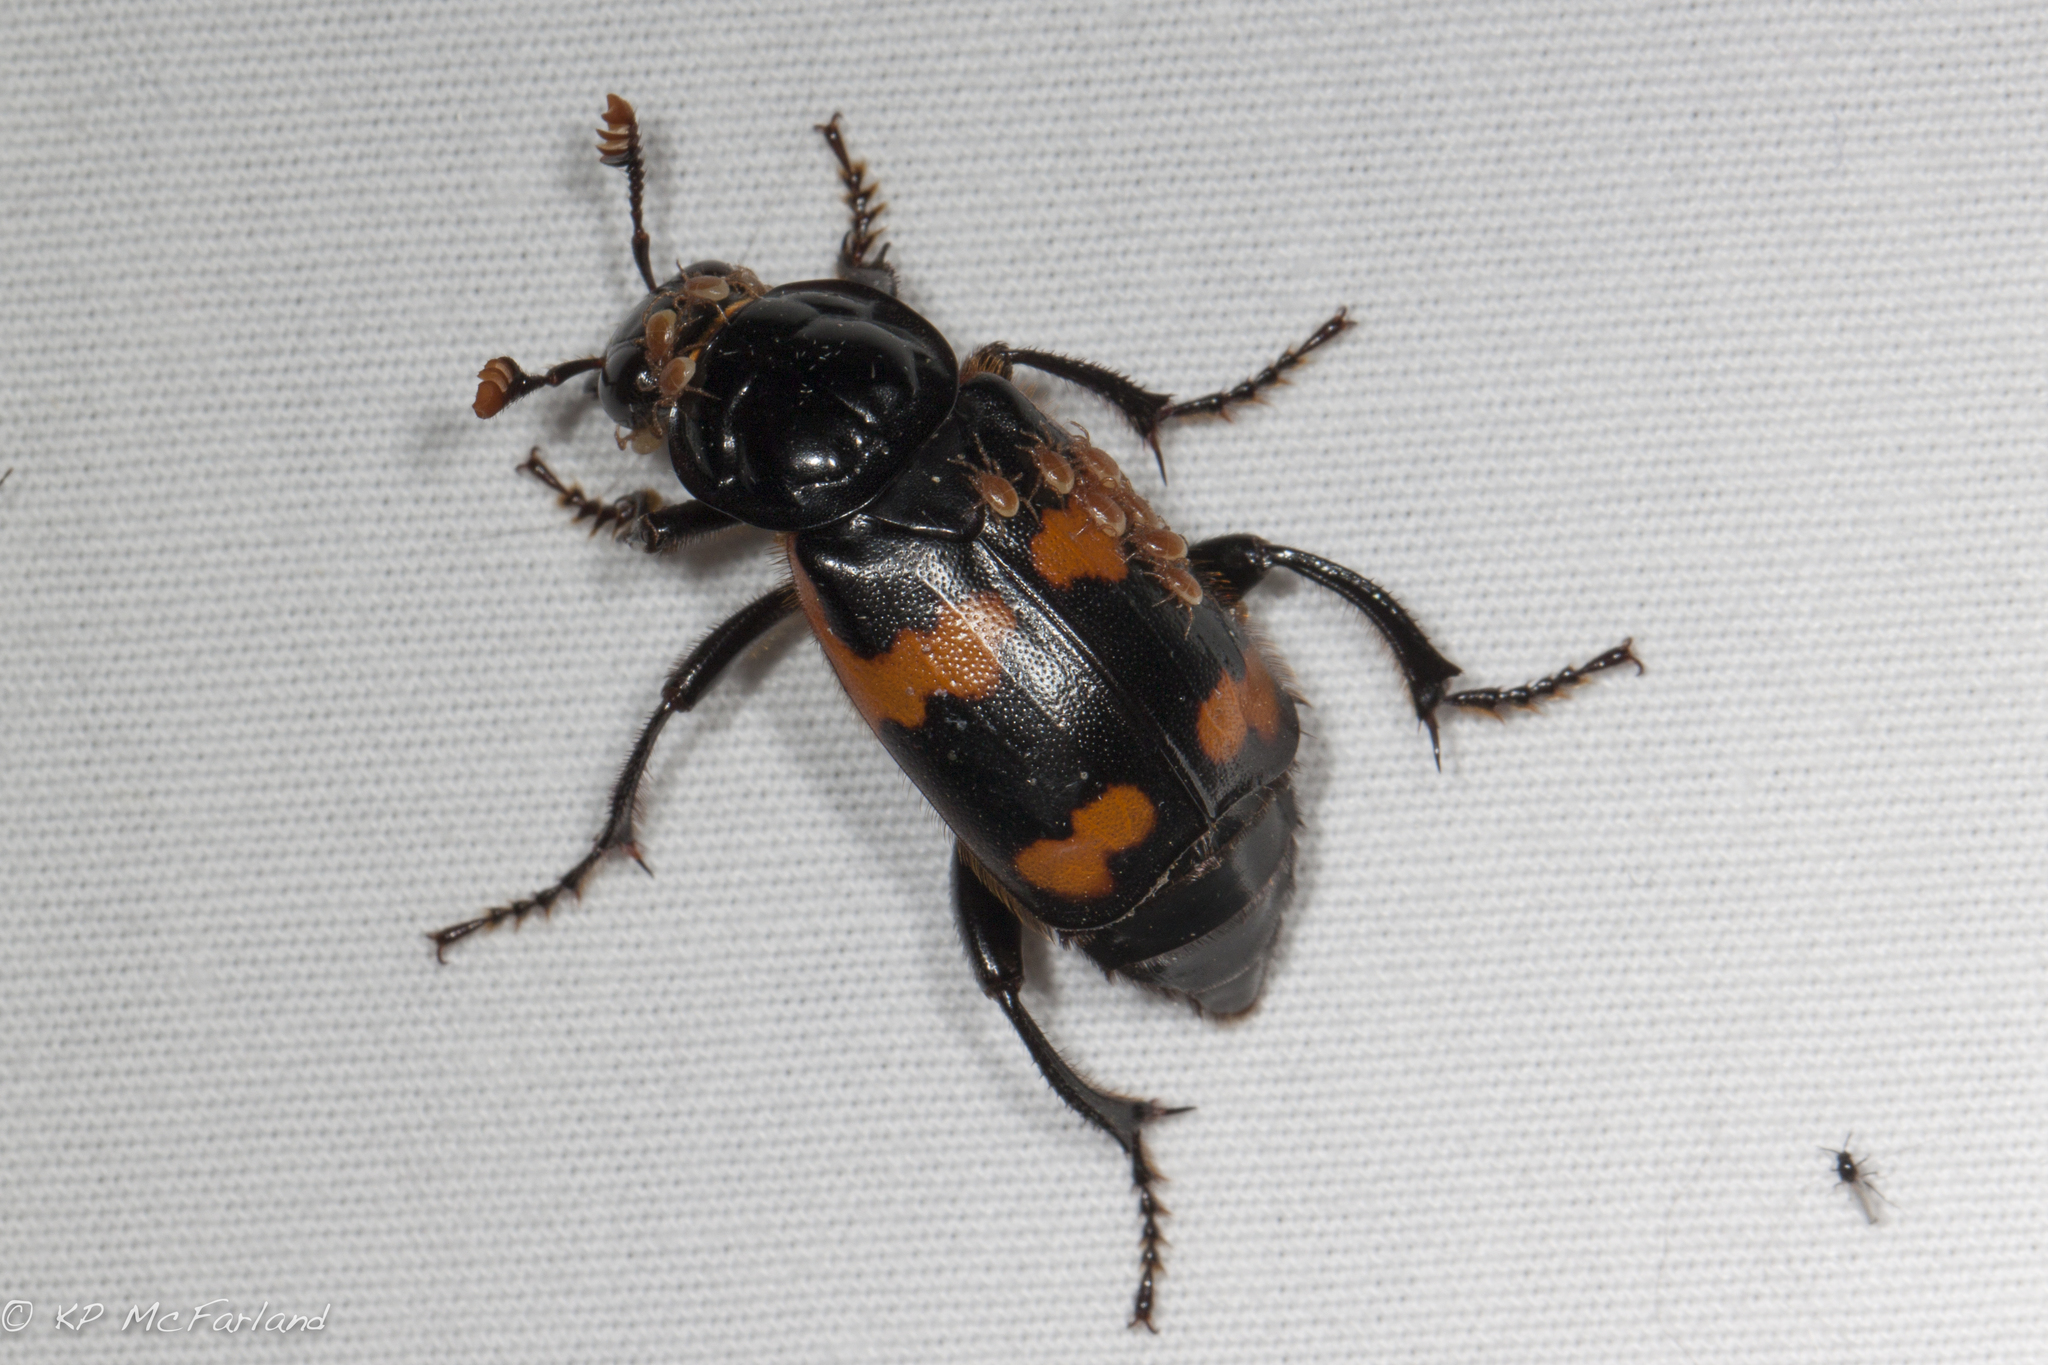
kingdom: Animalia
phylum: Arthropoda
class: Insecta
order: Coleoptera
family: Staphylinidae
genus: Nicrophorus
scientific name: Nicrophorus sayi
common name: Say's burying beetle
